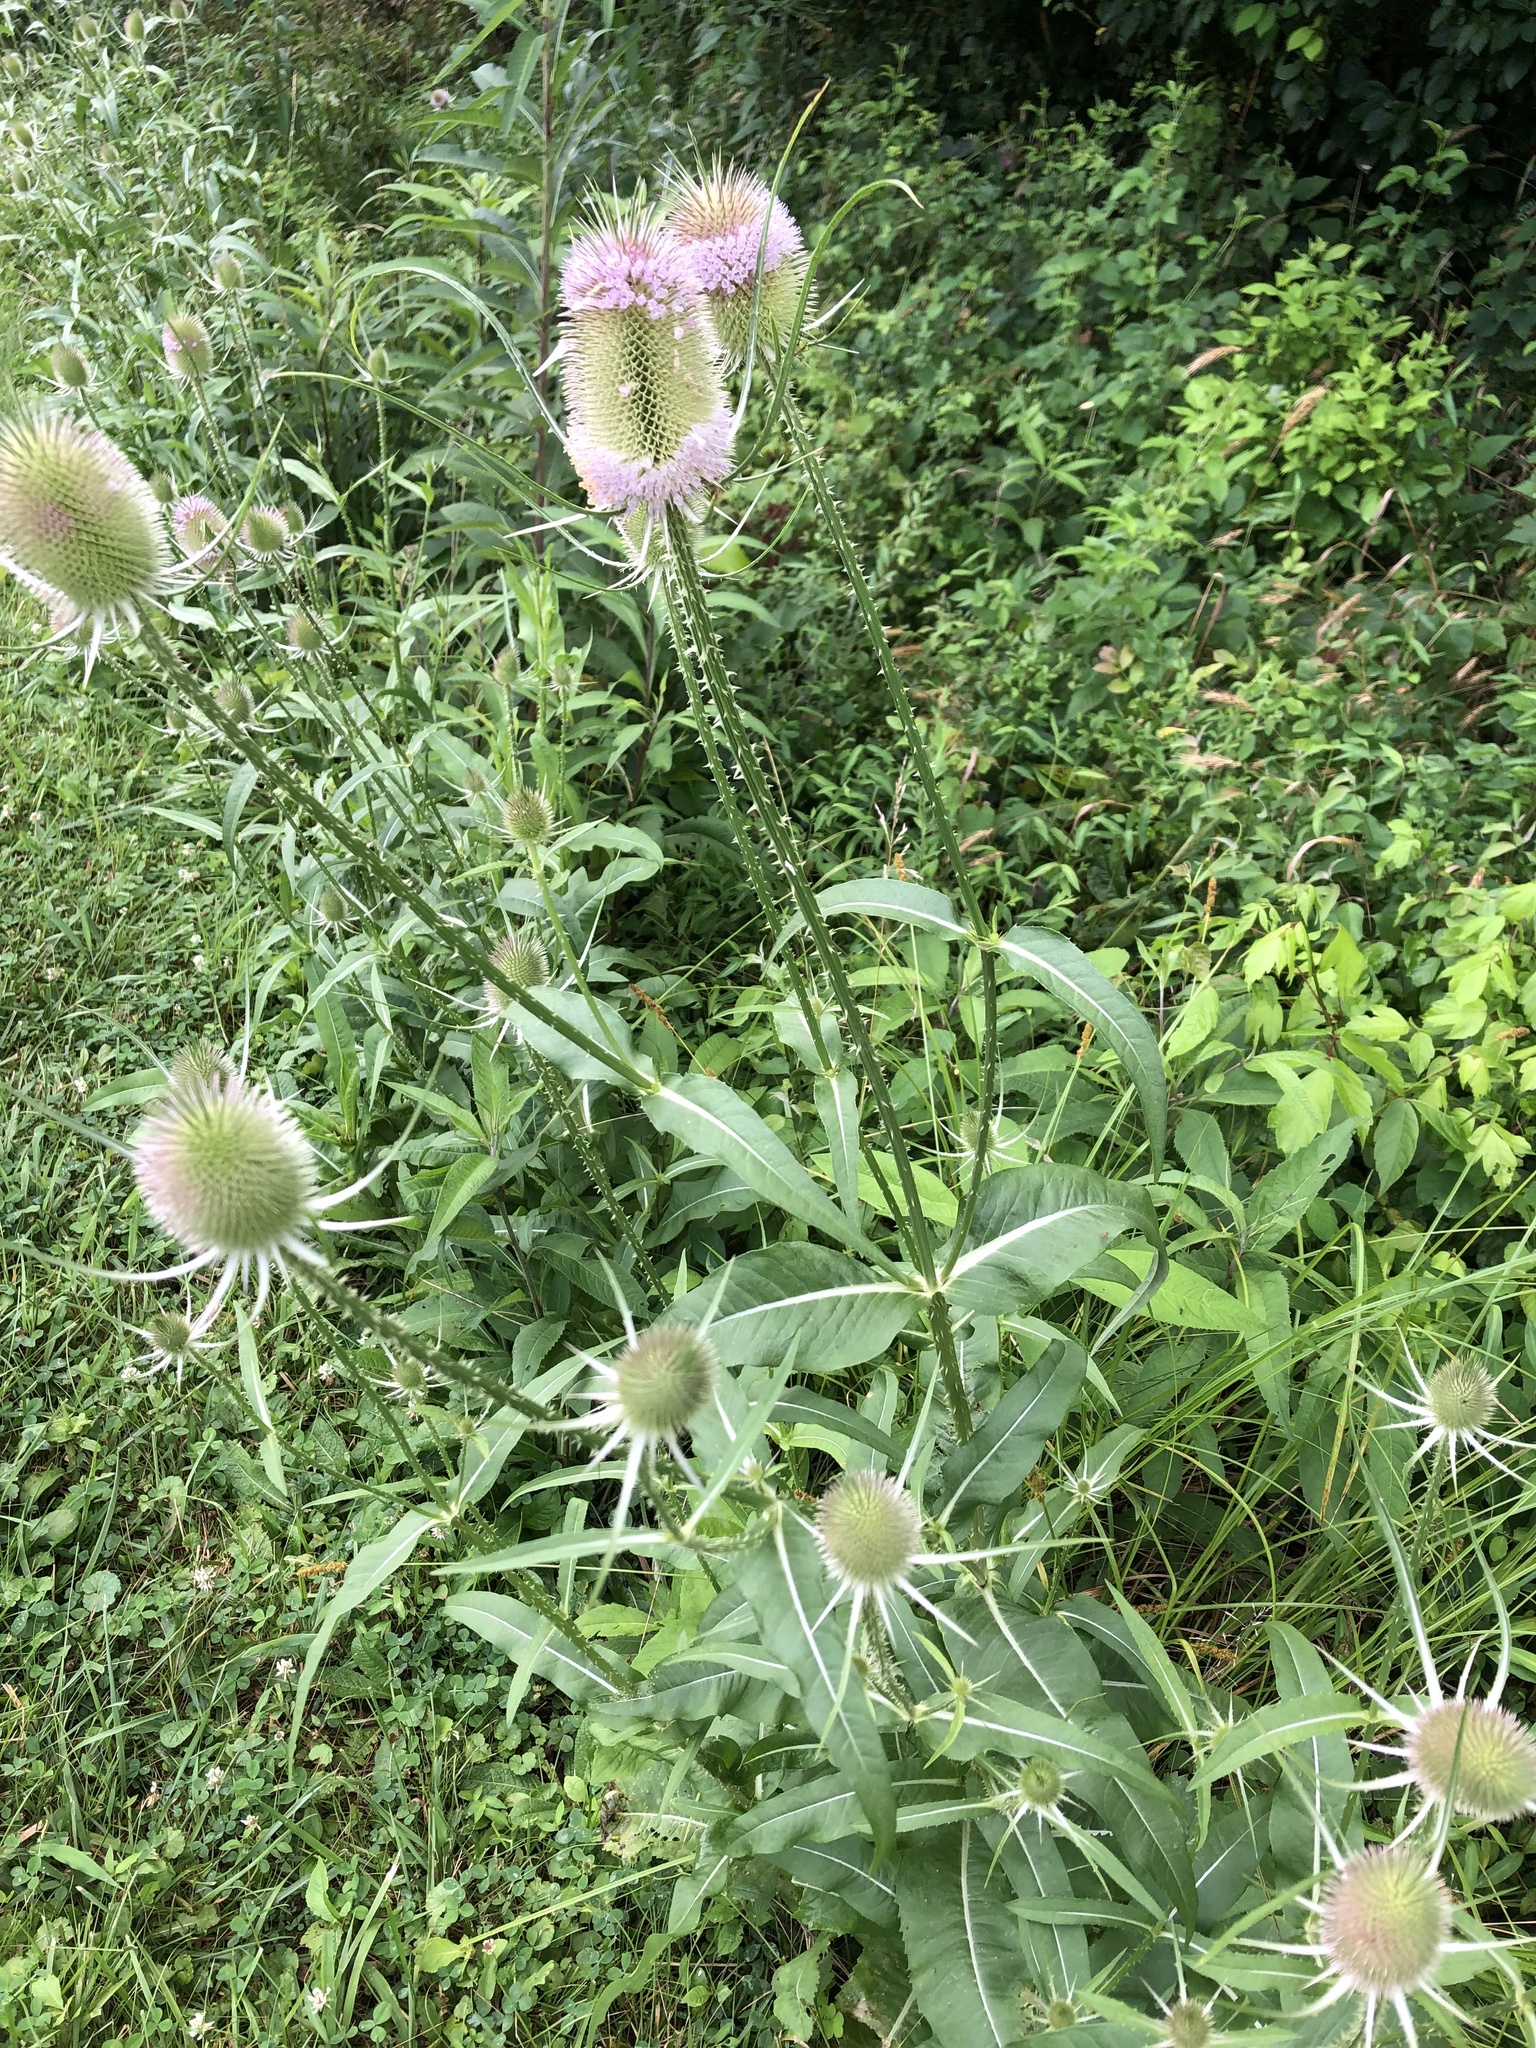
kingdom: Plantae
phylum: Tracheophyta
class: Magnoliopsida
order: Dipsacales
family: Caprifoliaceae
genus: Dipsacus
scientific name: Dipsacus fullonum
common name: Teasel
